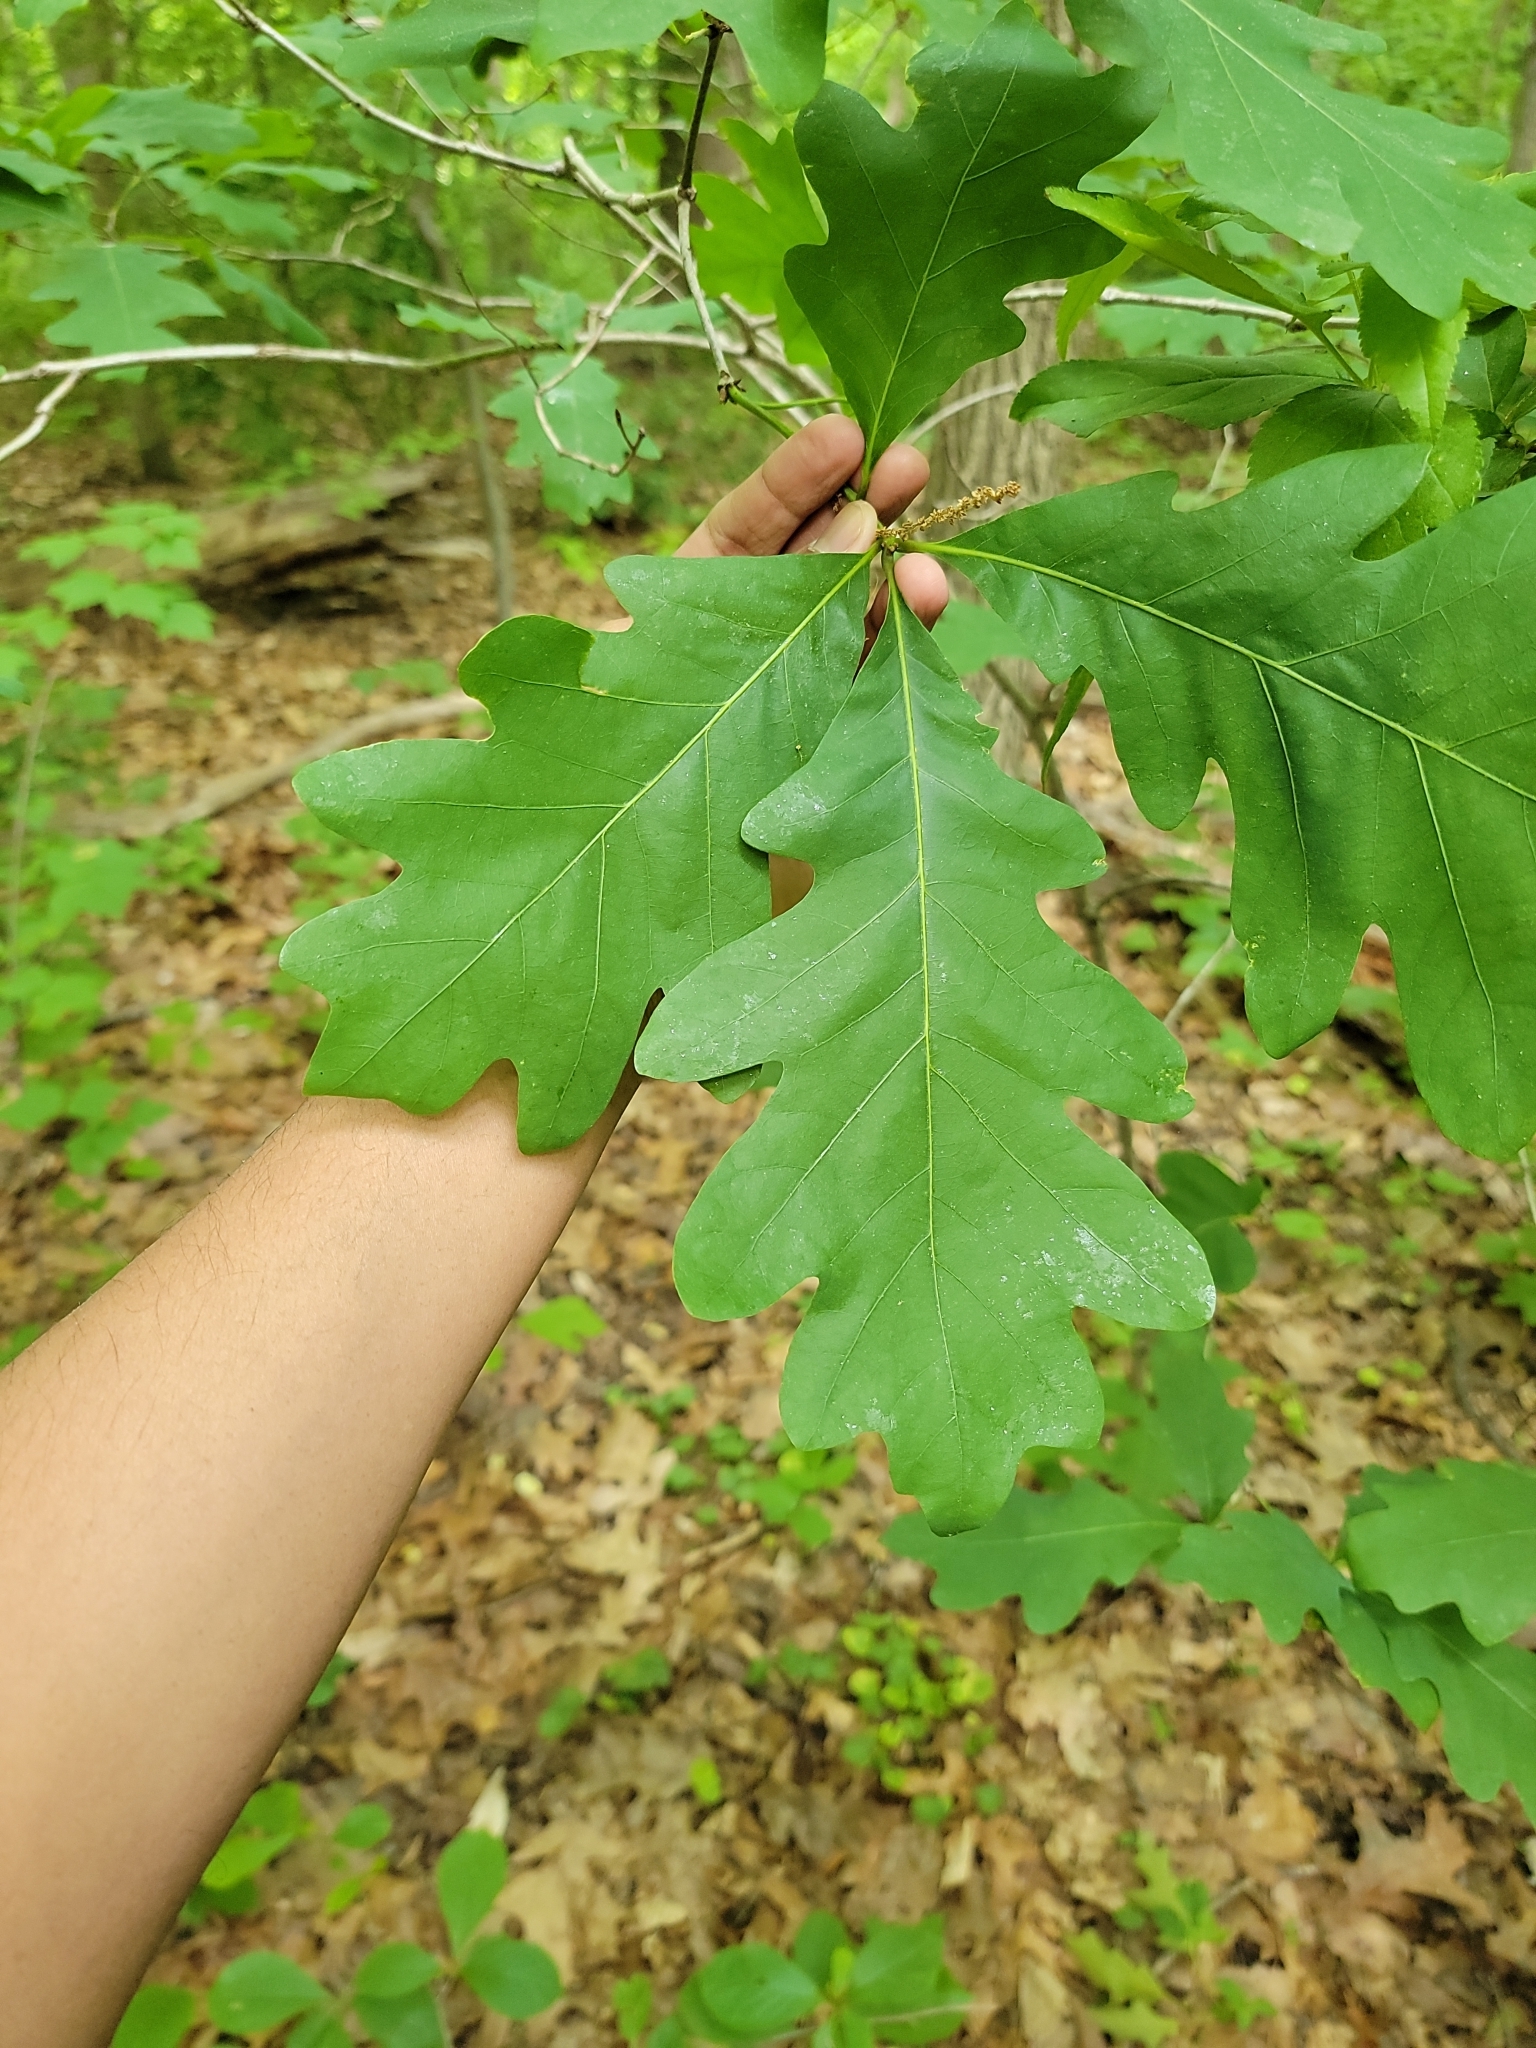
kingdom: Plantae
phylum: Tracheophyta
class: Magnoliopsida
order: Fagales
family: Fagaceae
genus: Quercus
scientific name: Quercus alba
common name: White oak
